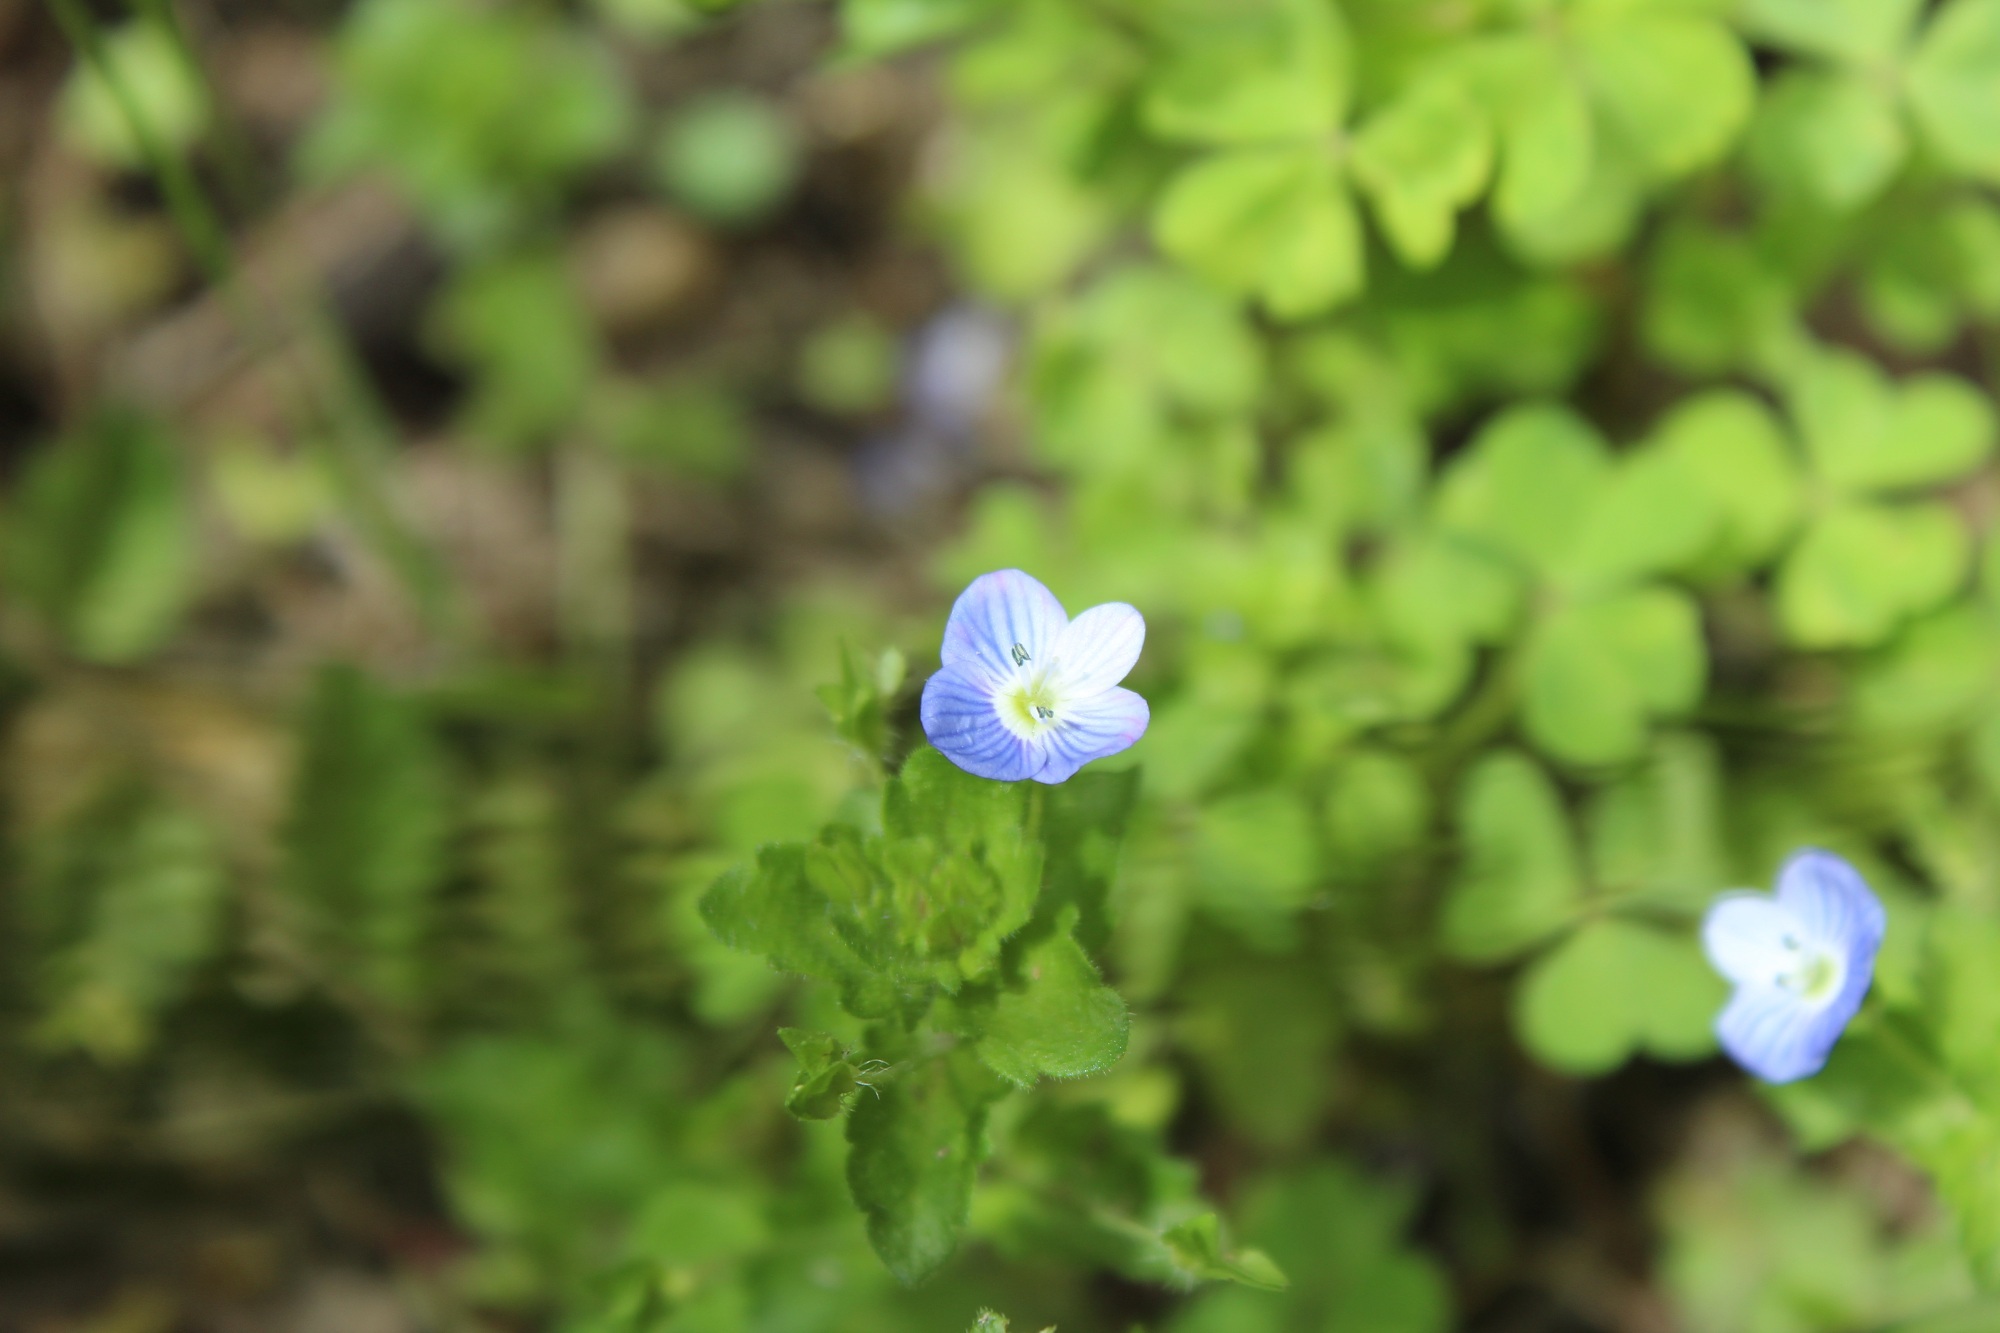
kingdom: Plantae
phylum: Tracheophyta
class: Magnoliopsida
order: Lamiales
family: Plantaginaceae
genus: Veronica
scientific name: Veronica persica
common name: Common field-speedwell
